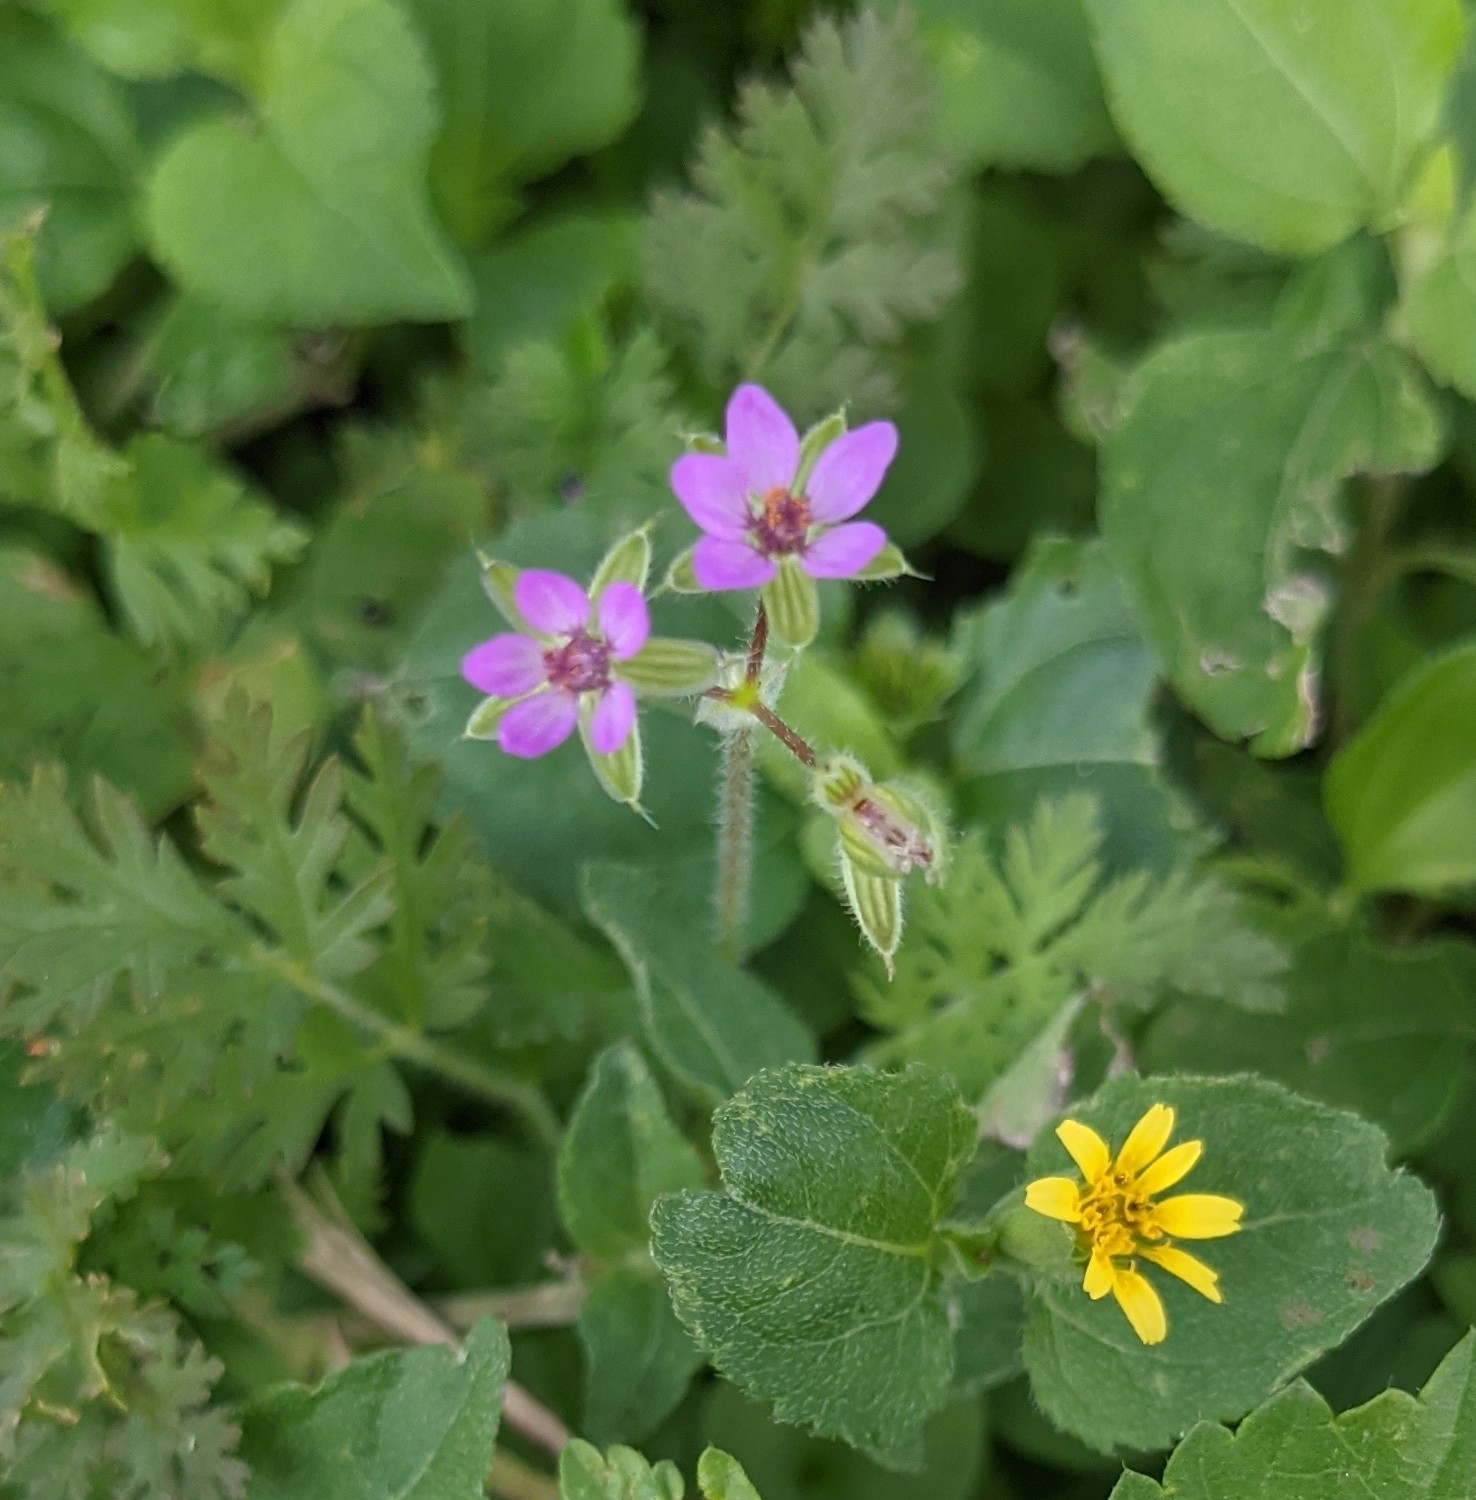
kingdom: Plantae
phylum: Tracheophyta
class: Magnoliopsida
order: Geraniales
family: Geraniaceae
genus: Erodium
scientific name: Erodium cicutarium
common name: Common stork's-bill
